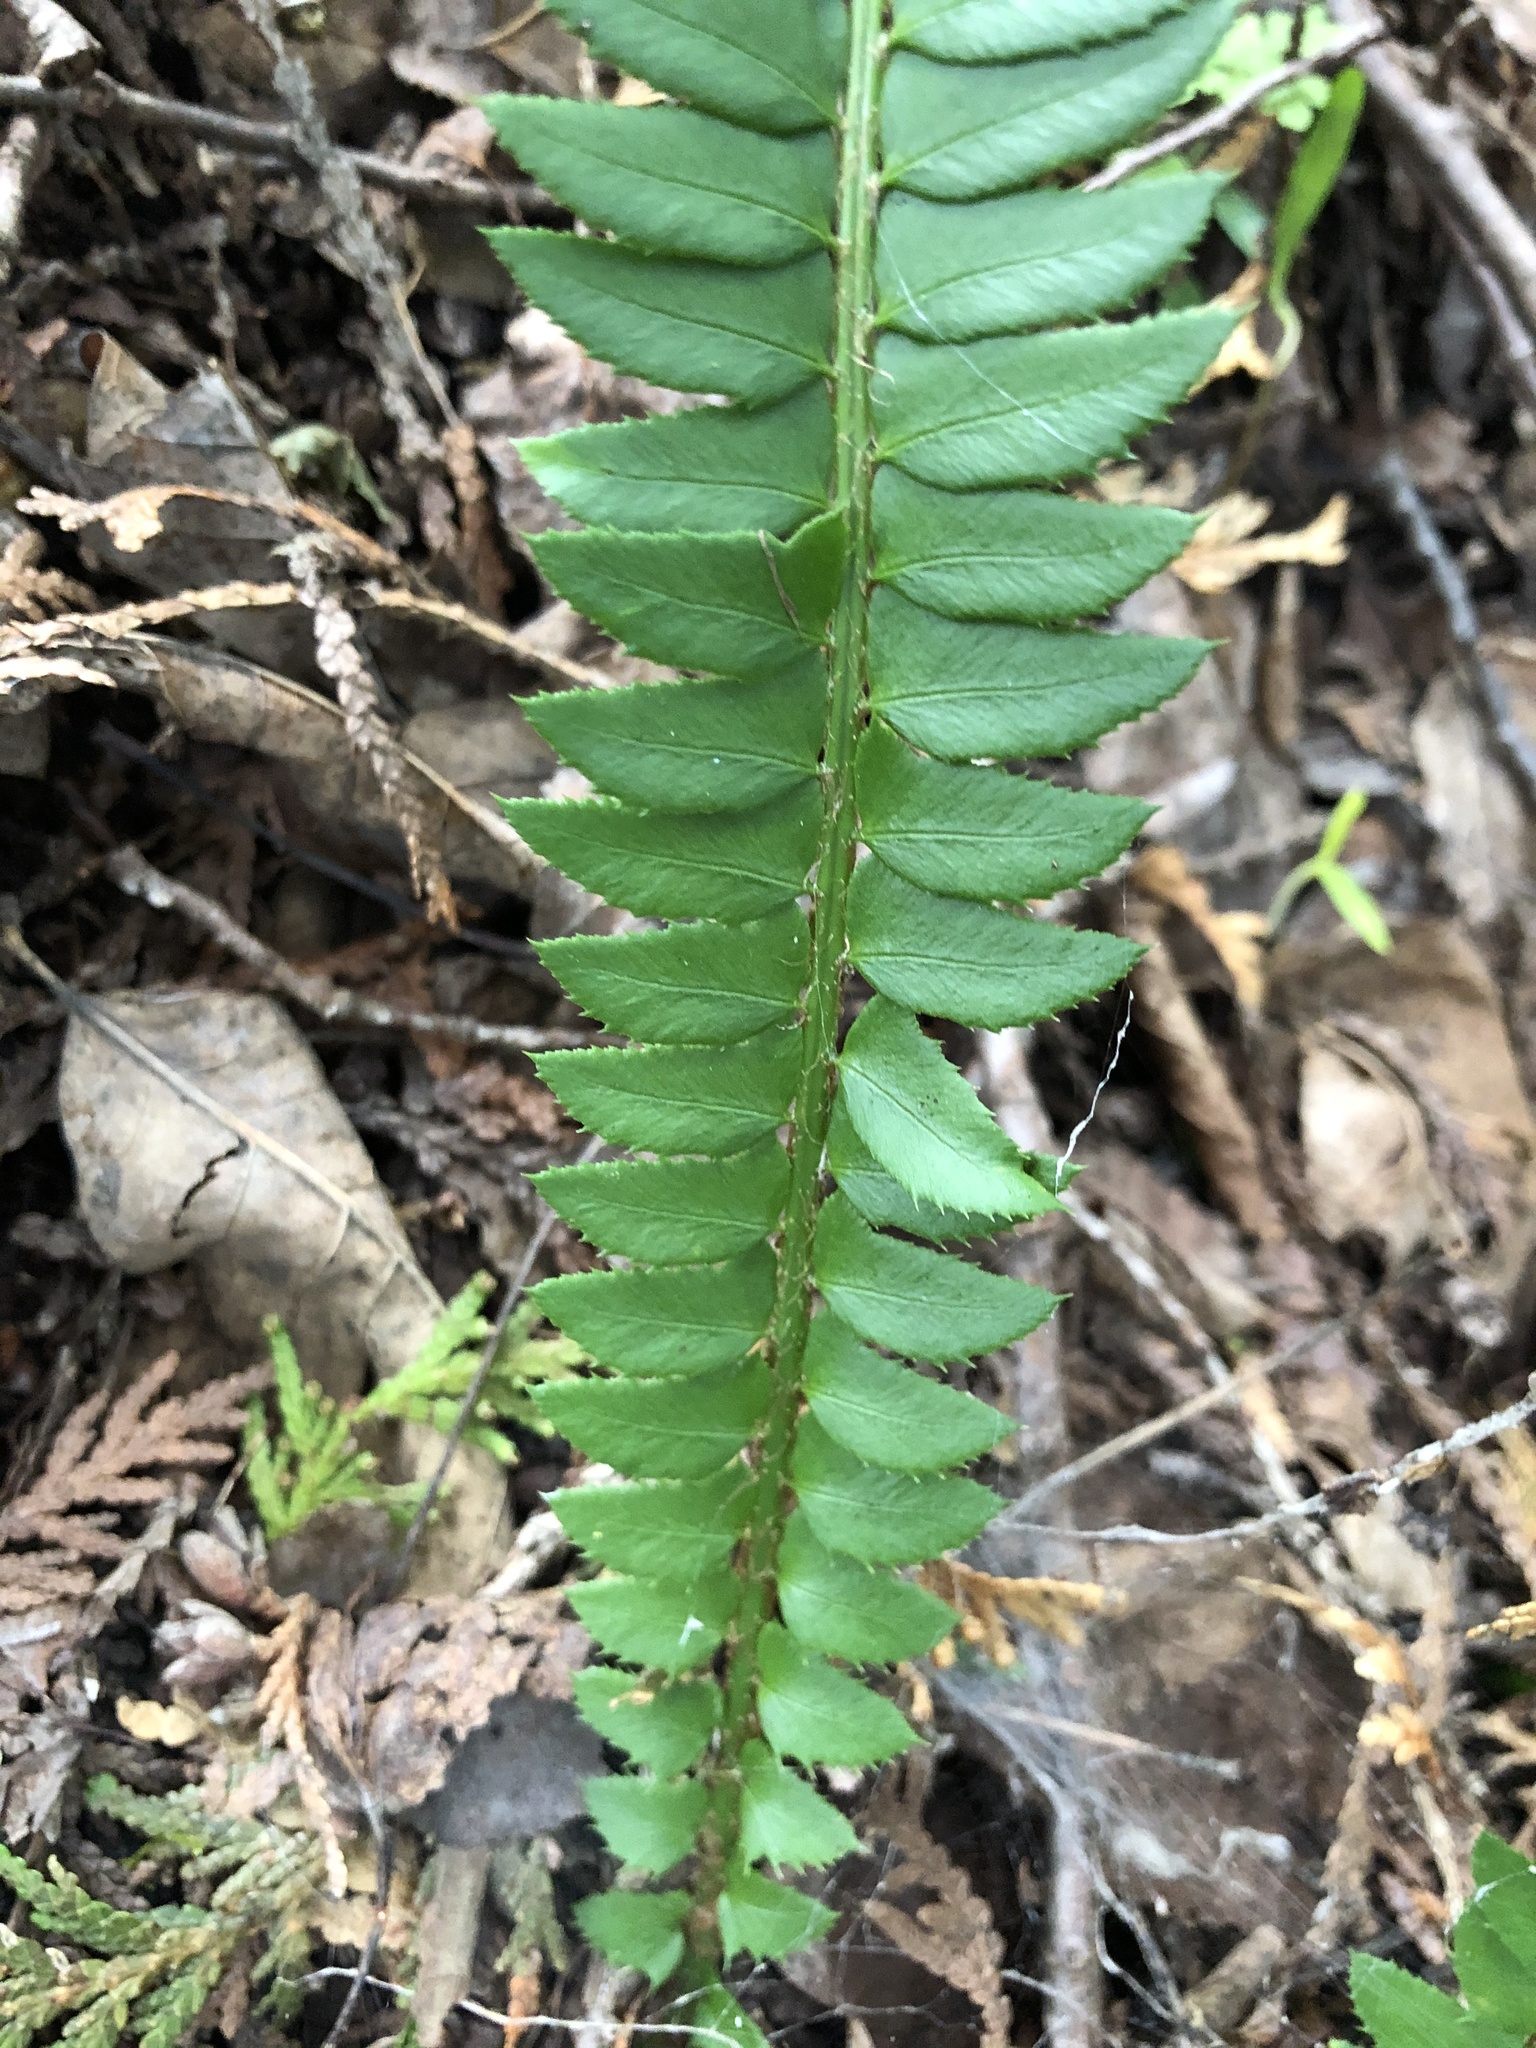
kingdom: Plantae
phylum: Tracheophyta
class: Polypodiopsida
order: Polypodiales
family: Dryopteridaceae
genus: Polystichum
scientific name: Polystichum lonchitis
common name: Holly fern
